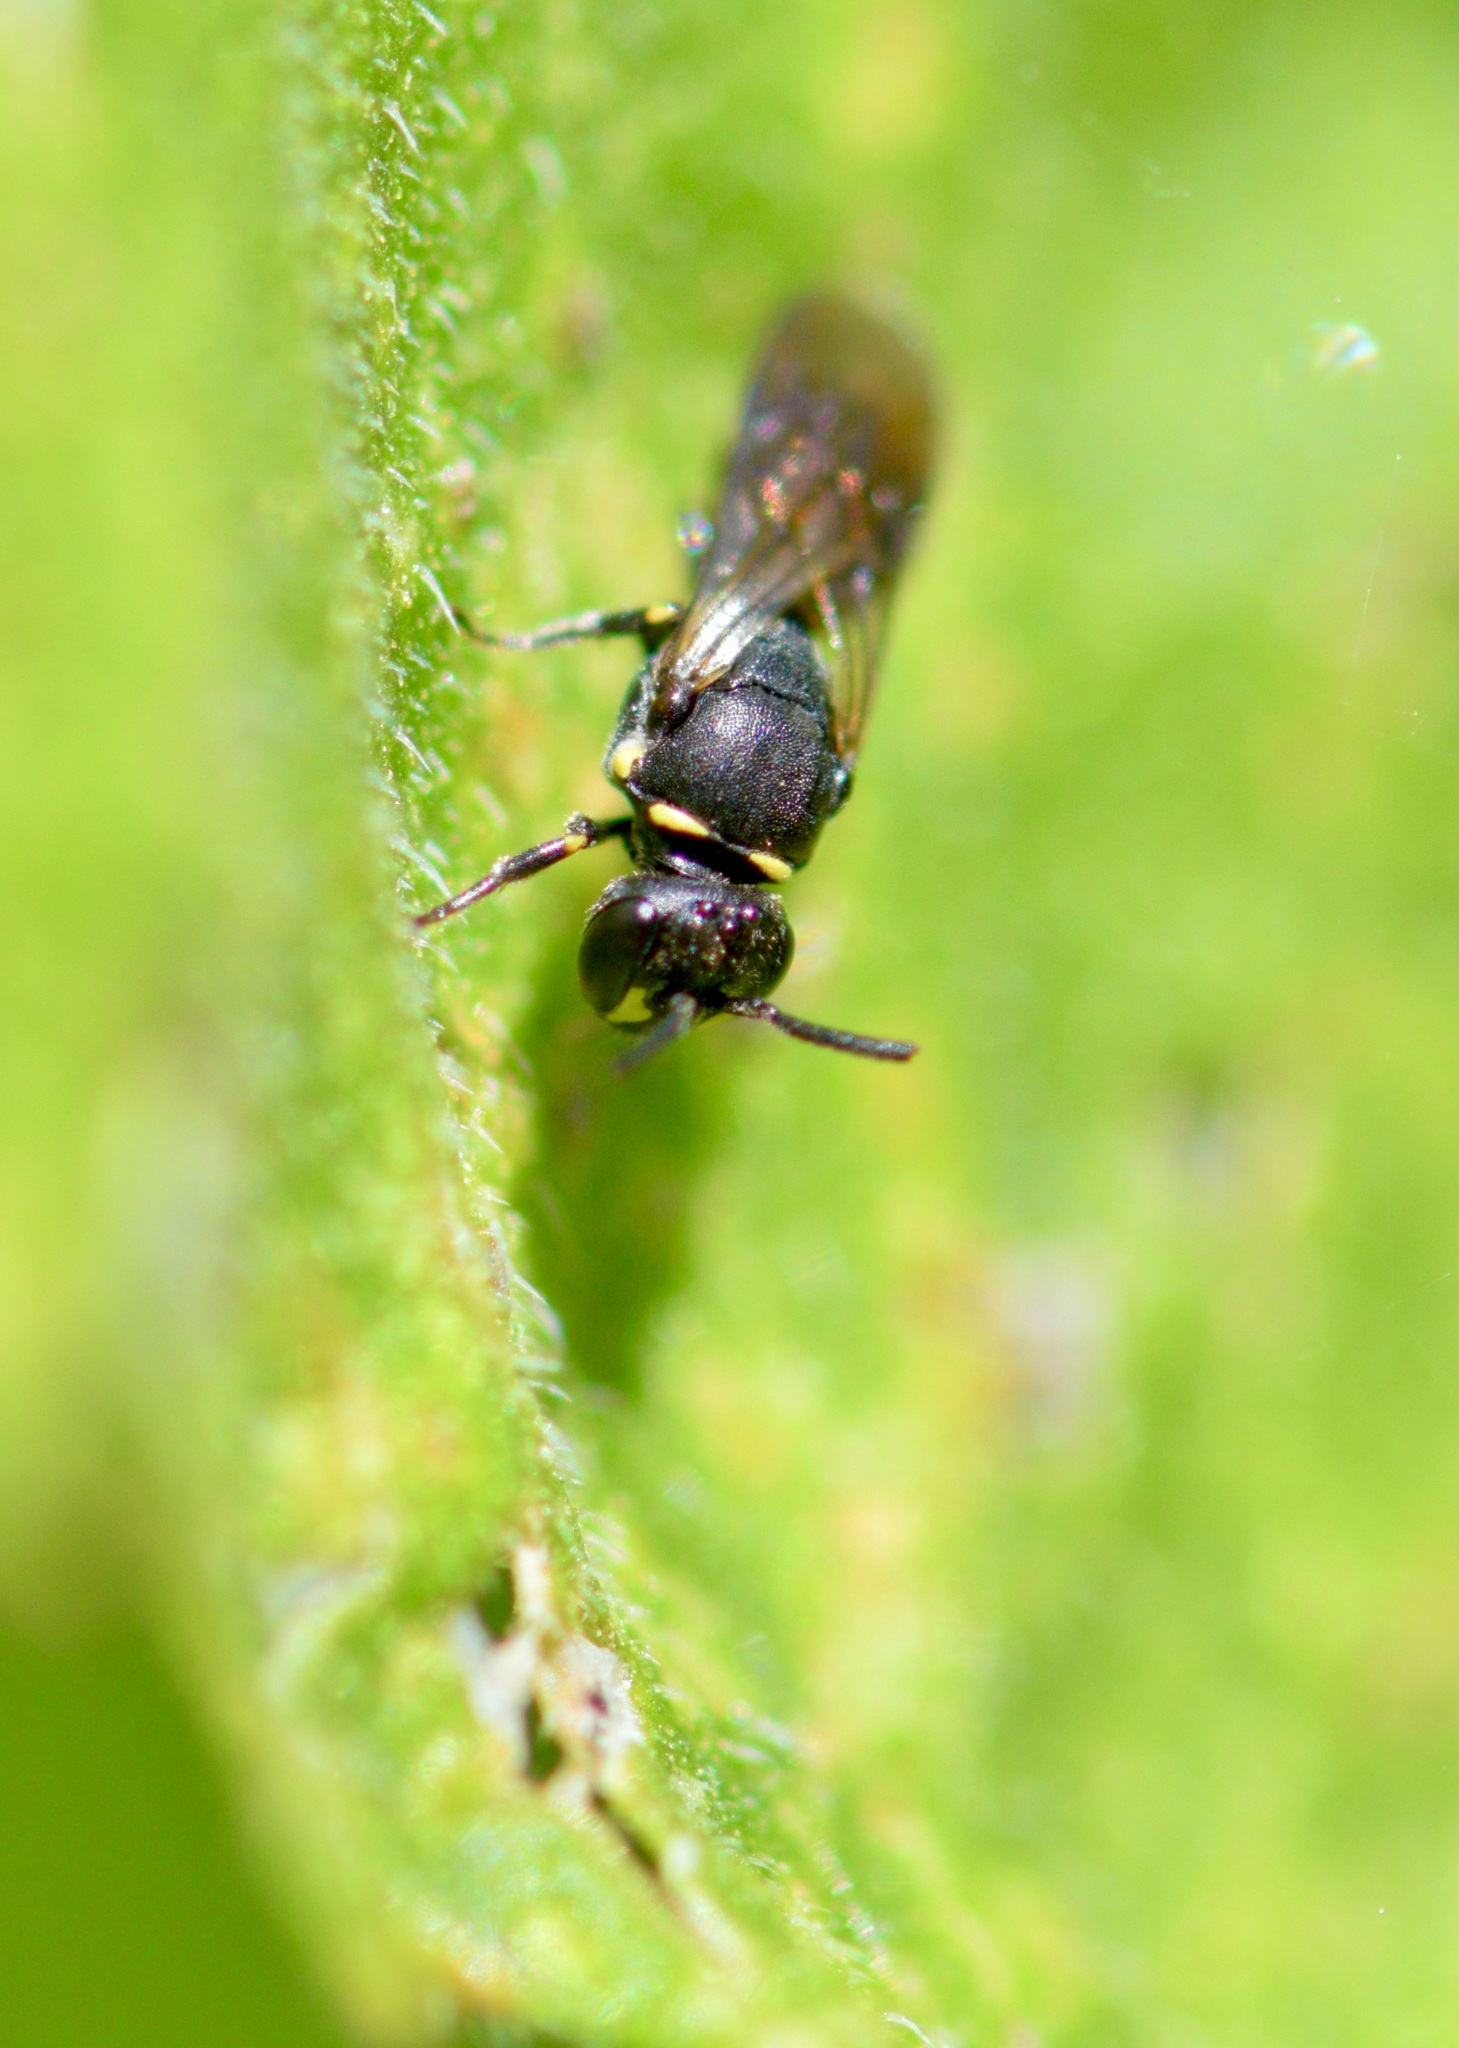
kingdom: Animalia
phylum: Arthropoda
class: Insecta
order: Hymenoptera
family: Colletidae
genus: Hylaeus
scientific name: Hylaeus modestus
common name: Yellow-faced bee
